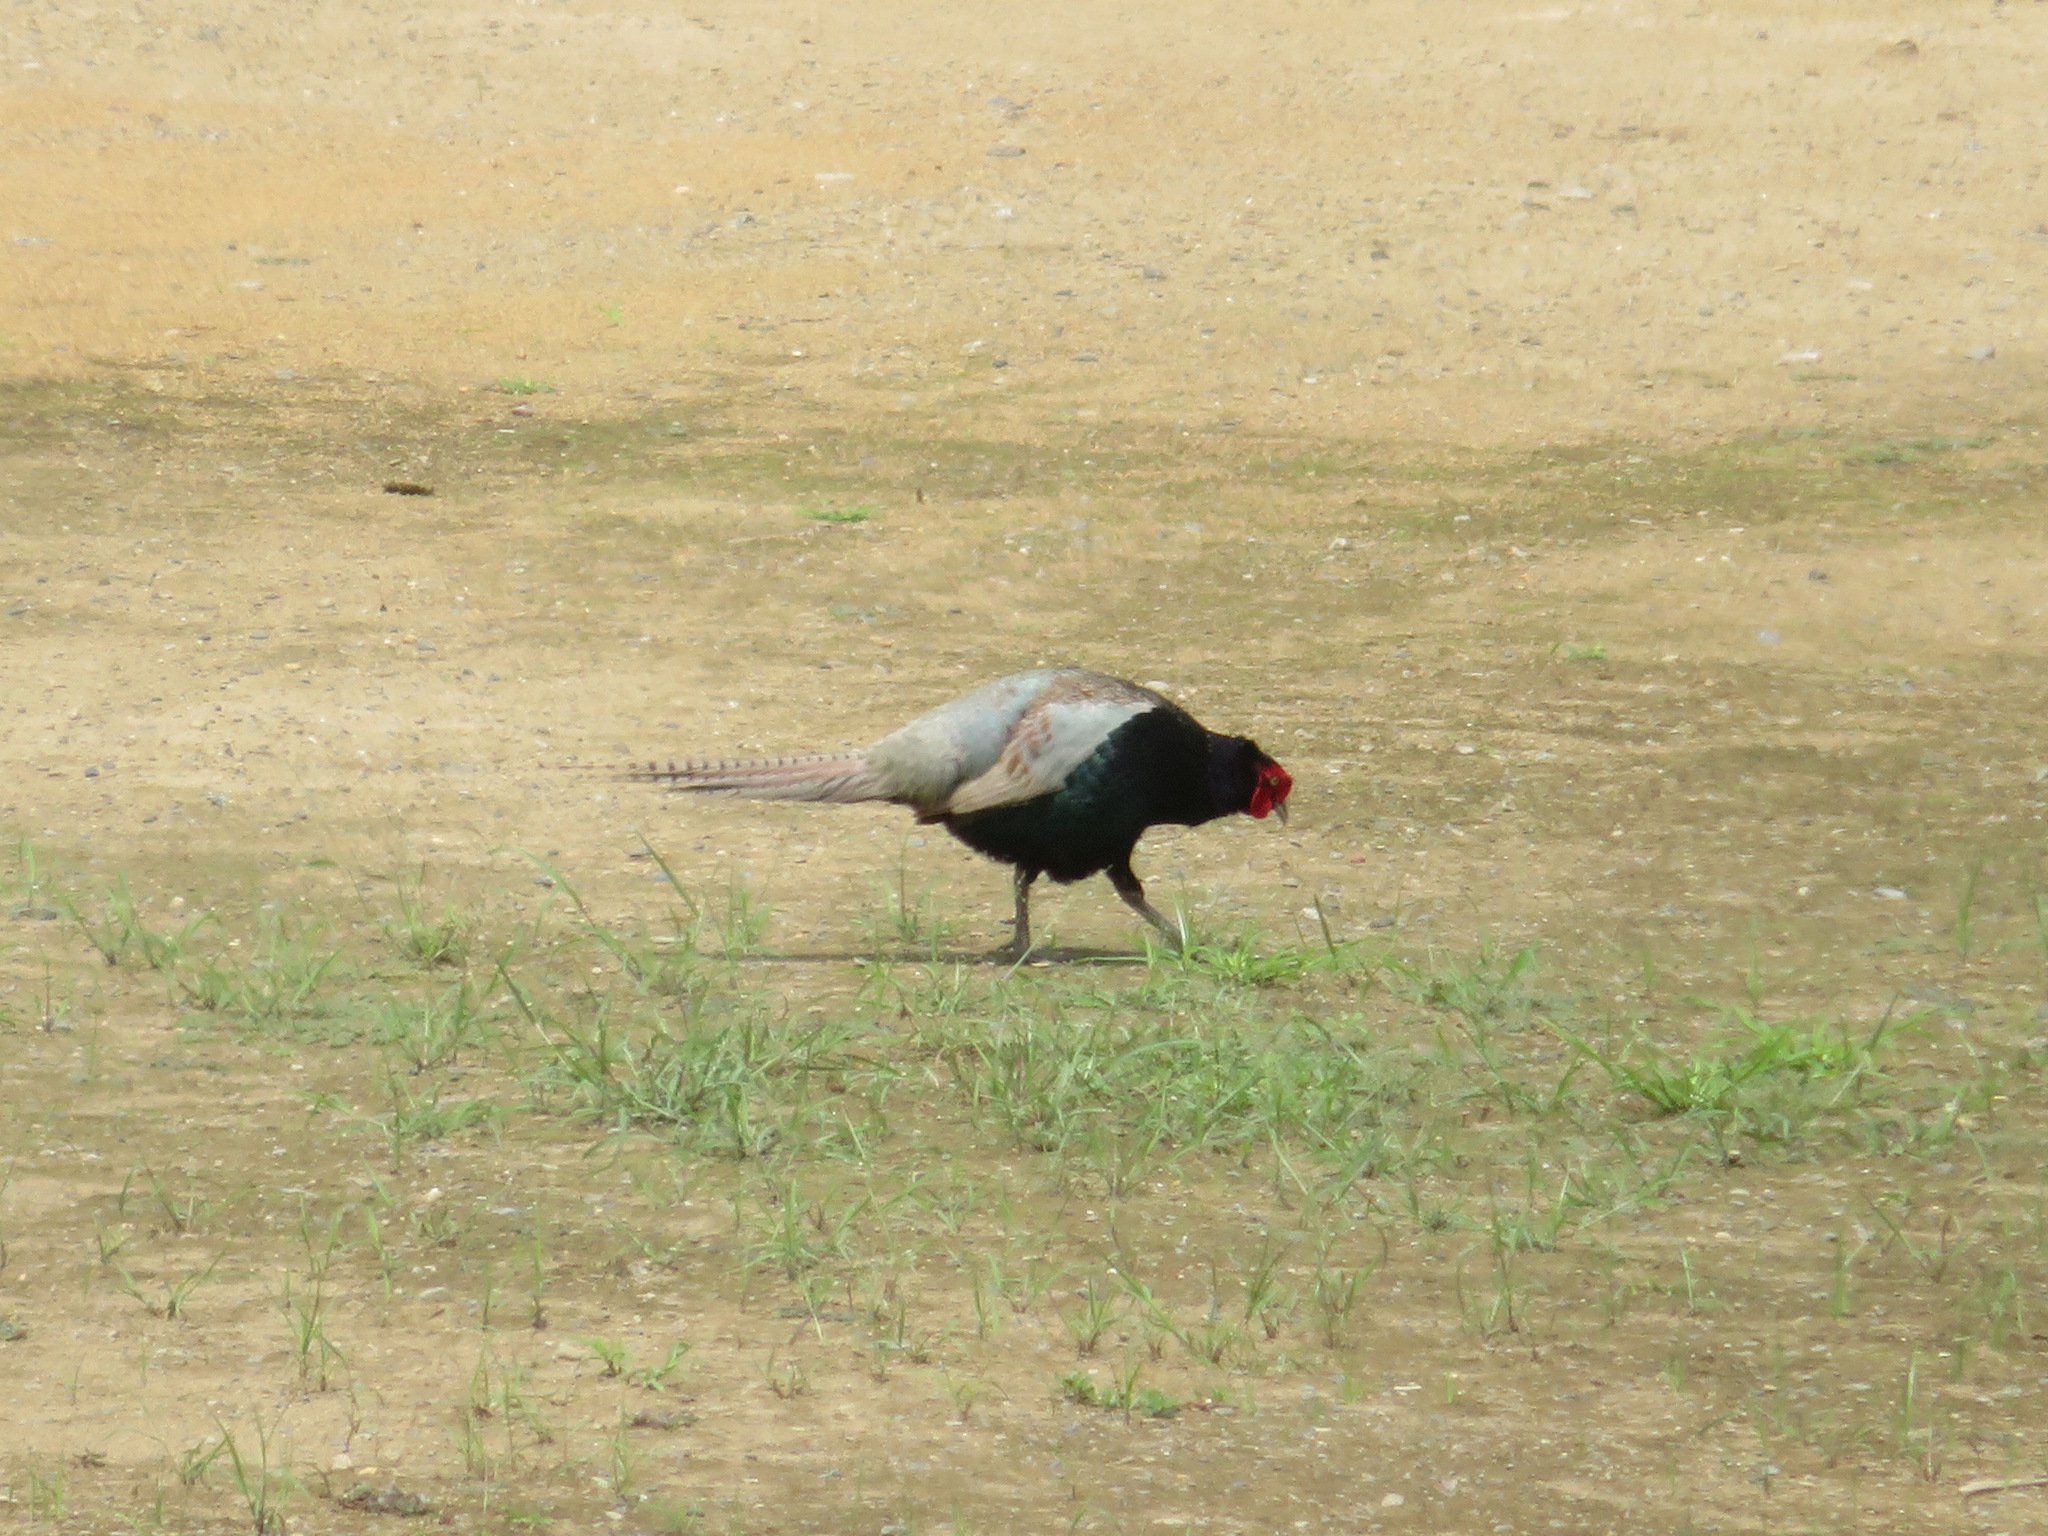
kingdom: Animalia
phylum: Chordata
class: Aves
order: Galliformes
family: Phasianidae
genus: Phasianus
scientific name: Phasianus versicolor
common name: Green pheasant
